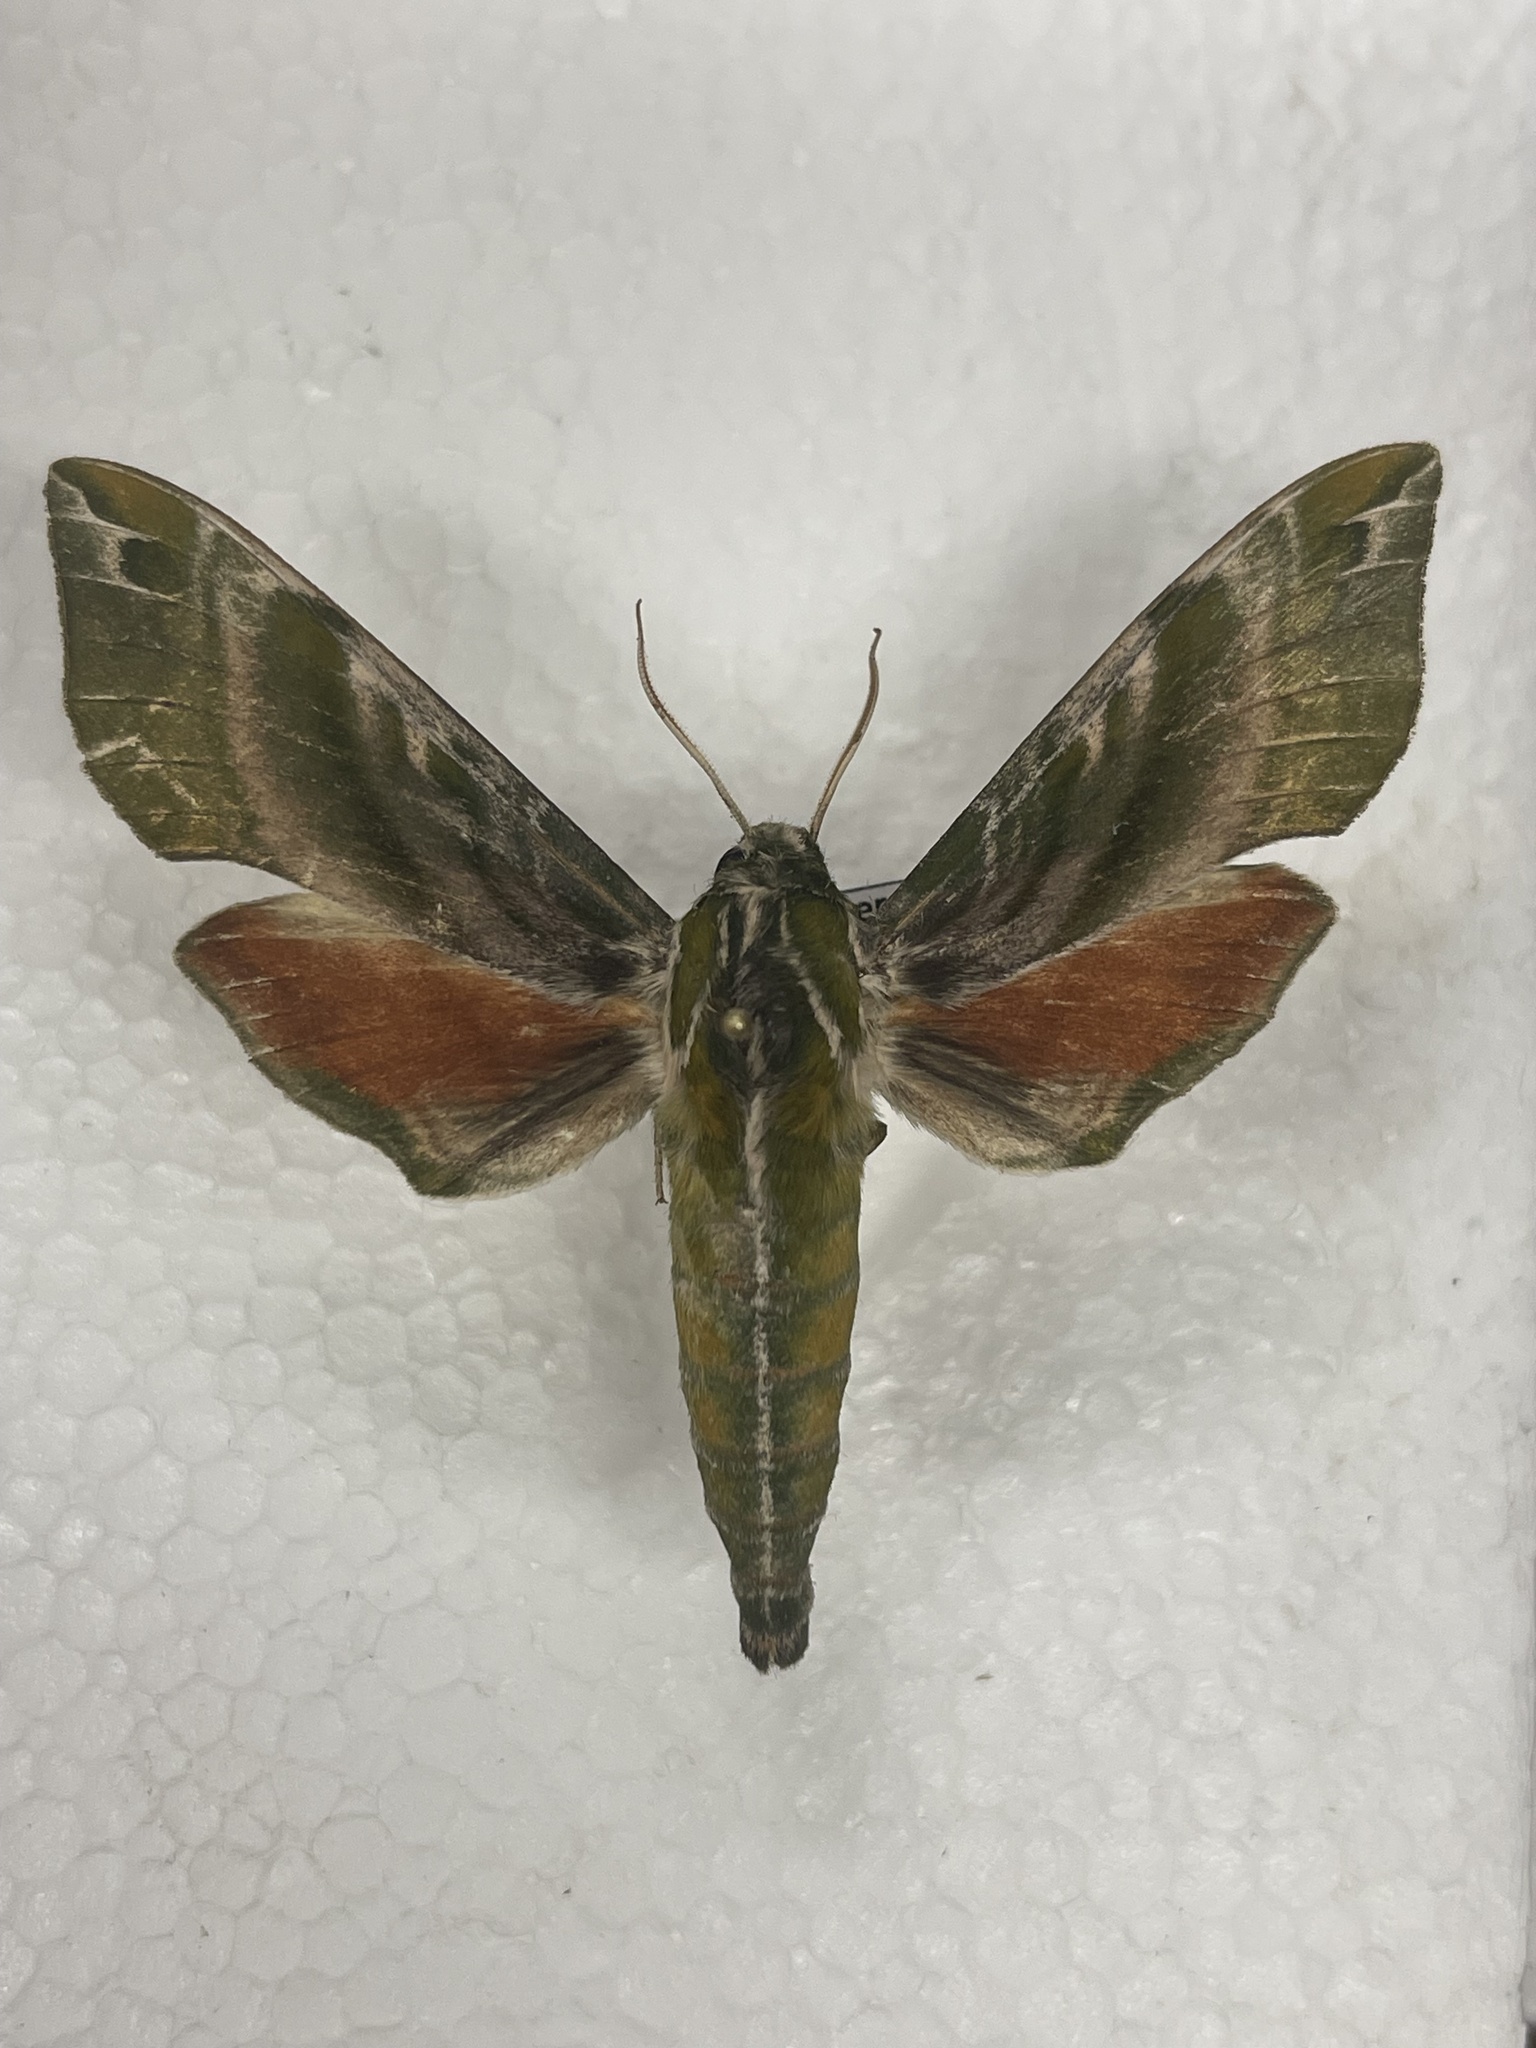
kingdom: Animalia
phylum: Arthropoda
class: Insecta
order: Lepidoptera
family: Sphingidae
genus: Darapsa
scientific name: Darapsa versicolor
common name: Hydrangea sphinx
